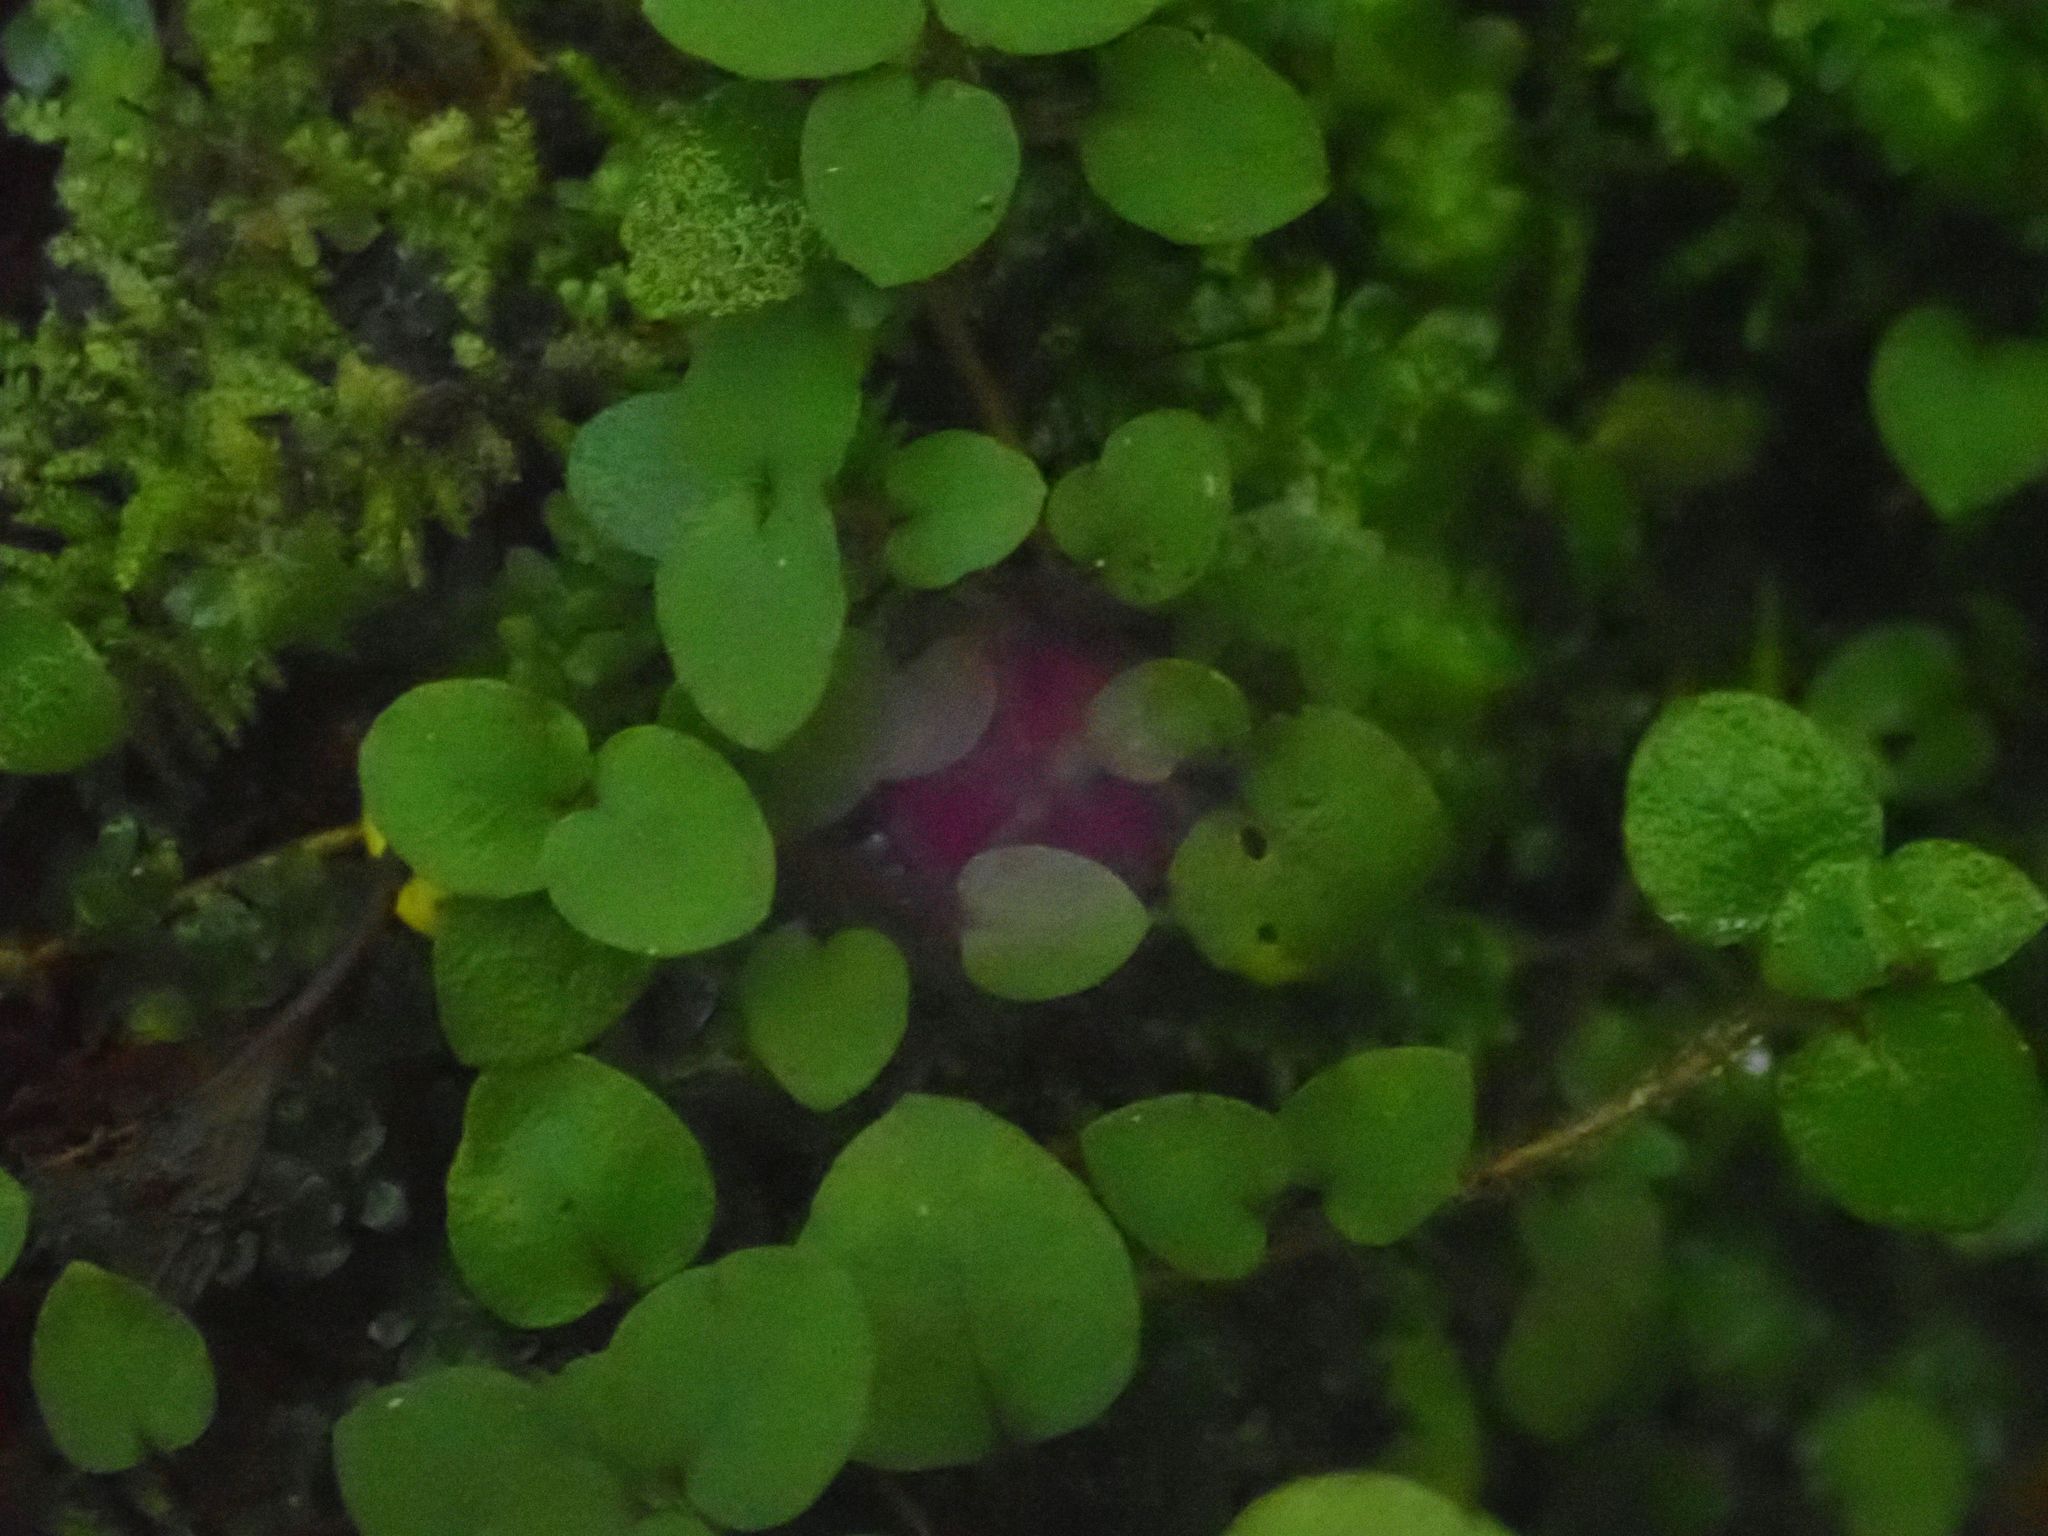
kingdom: Plantae
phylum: Tracheophyta
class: Magnoliopsida
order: Gentianales
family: Rubiaceae
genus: Nertera
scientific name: Nertera villosa
